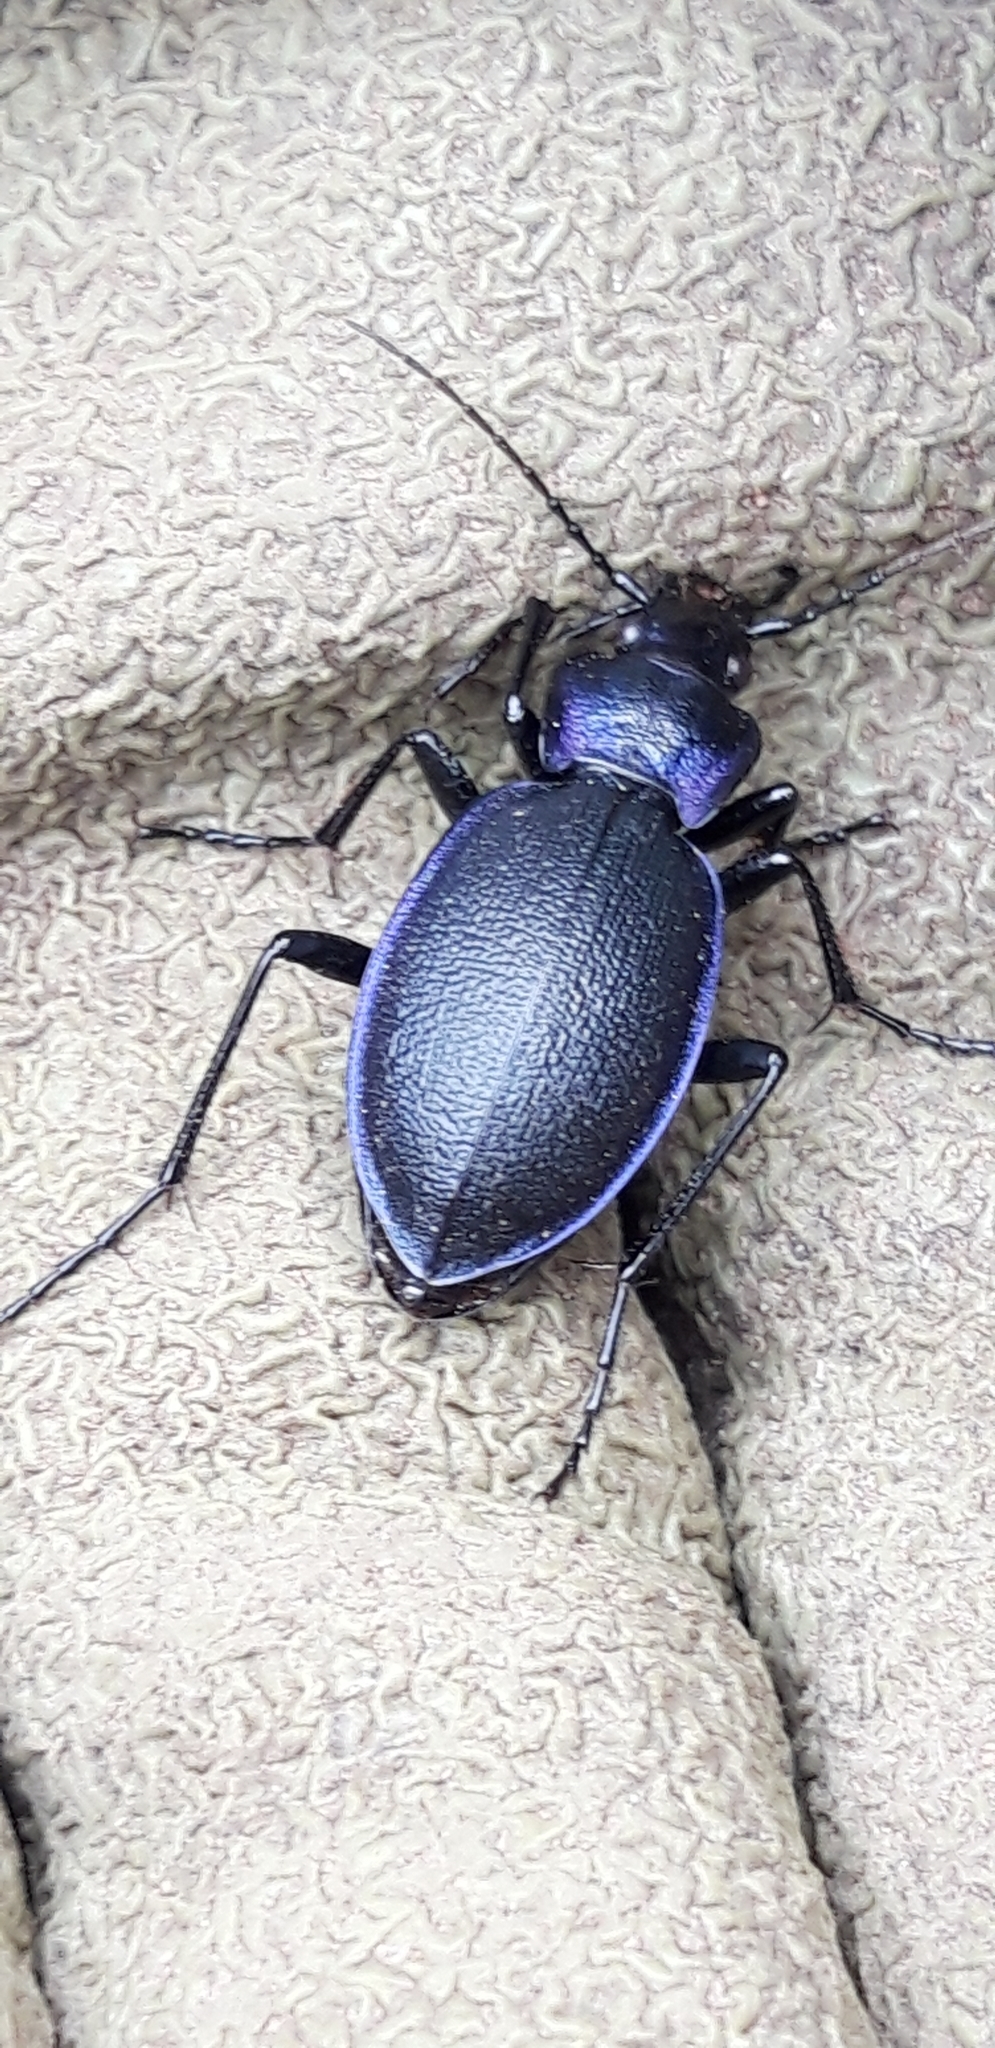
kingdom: Animalia
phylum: Arthropoda
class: Insecta
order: Coleoptera
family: Carabidae
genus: Carabus
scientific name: Carabus problematicus
